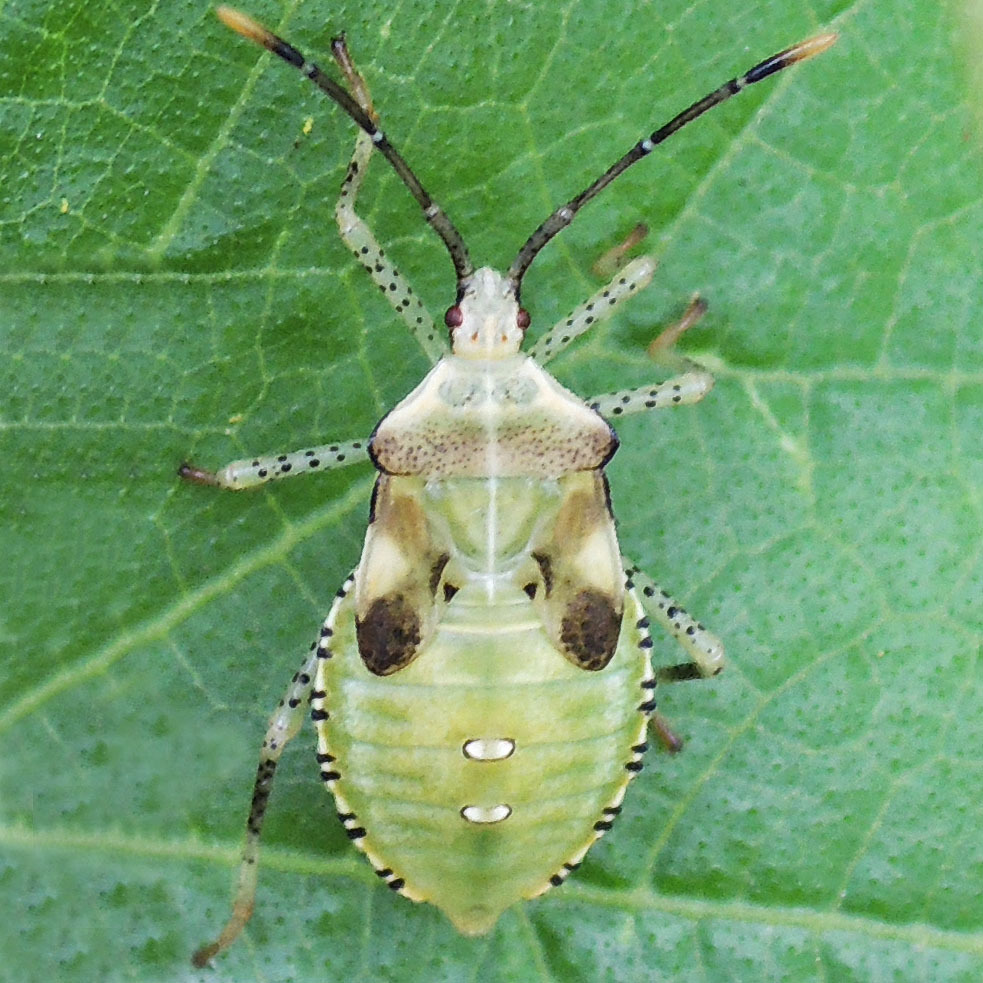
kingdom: Animalia
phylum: Arthropoda
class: Insecta
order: Hemiptera
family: Coreidae
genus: Anasa
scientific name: Anasa repetita
